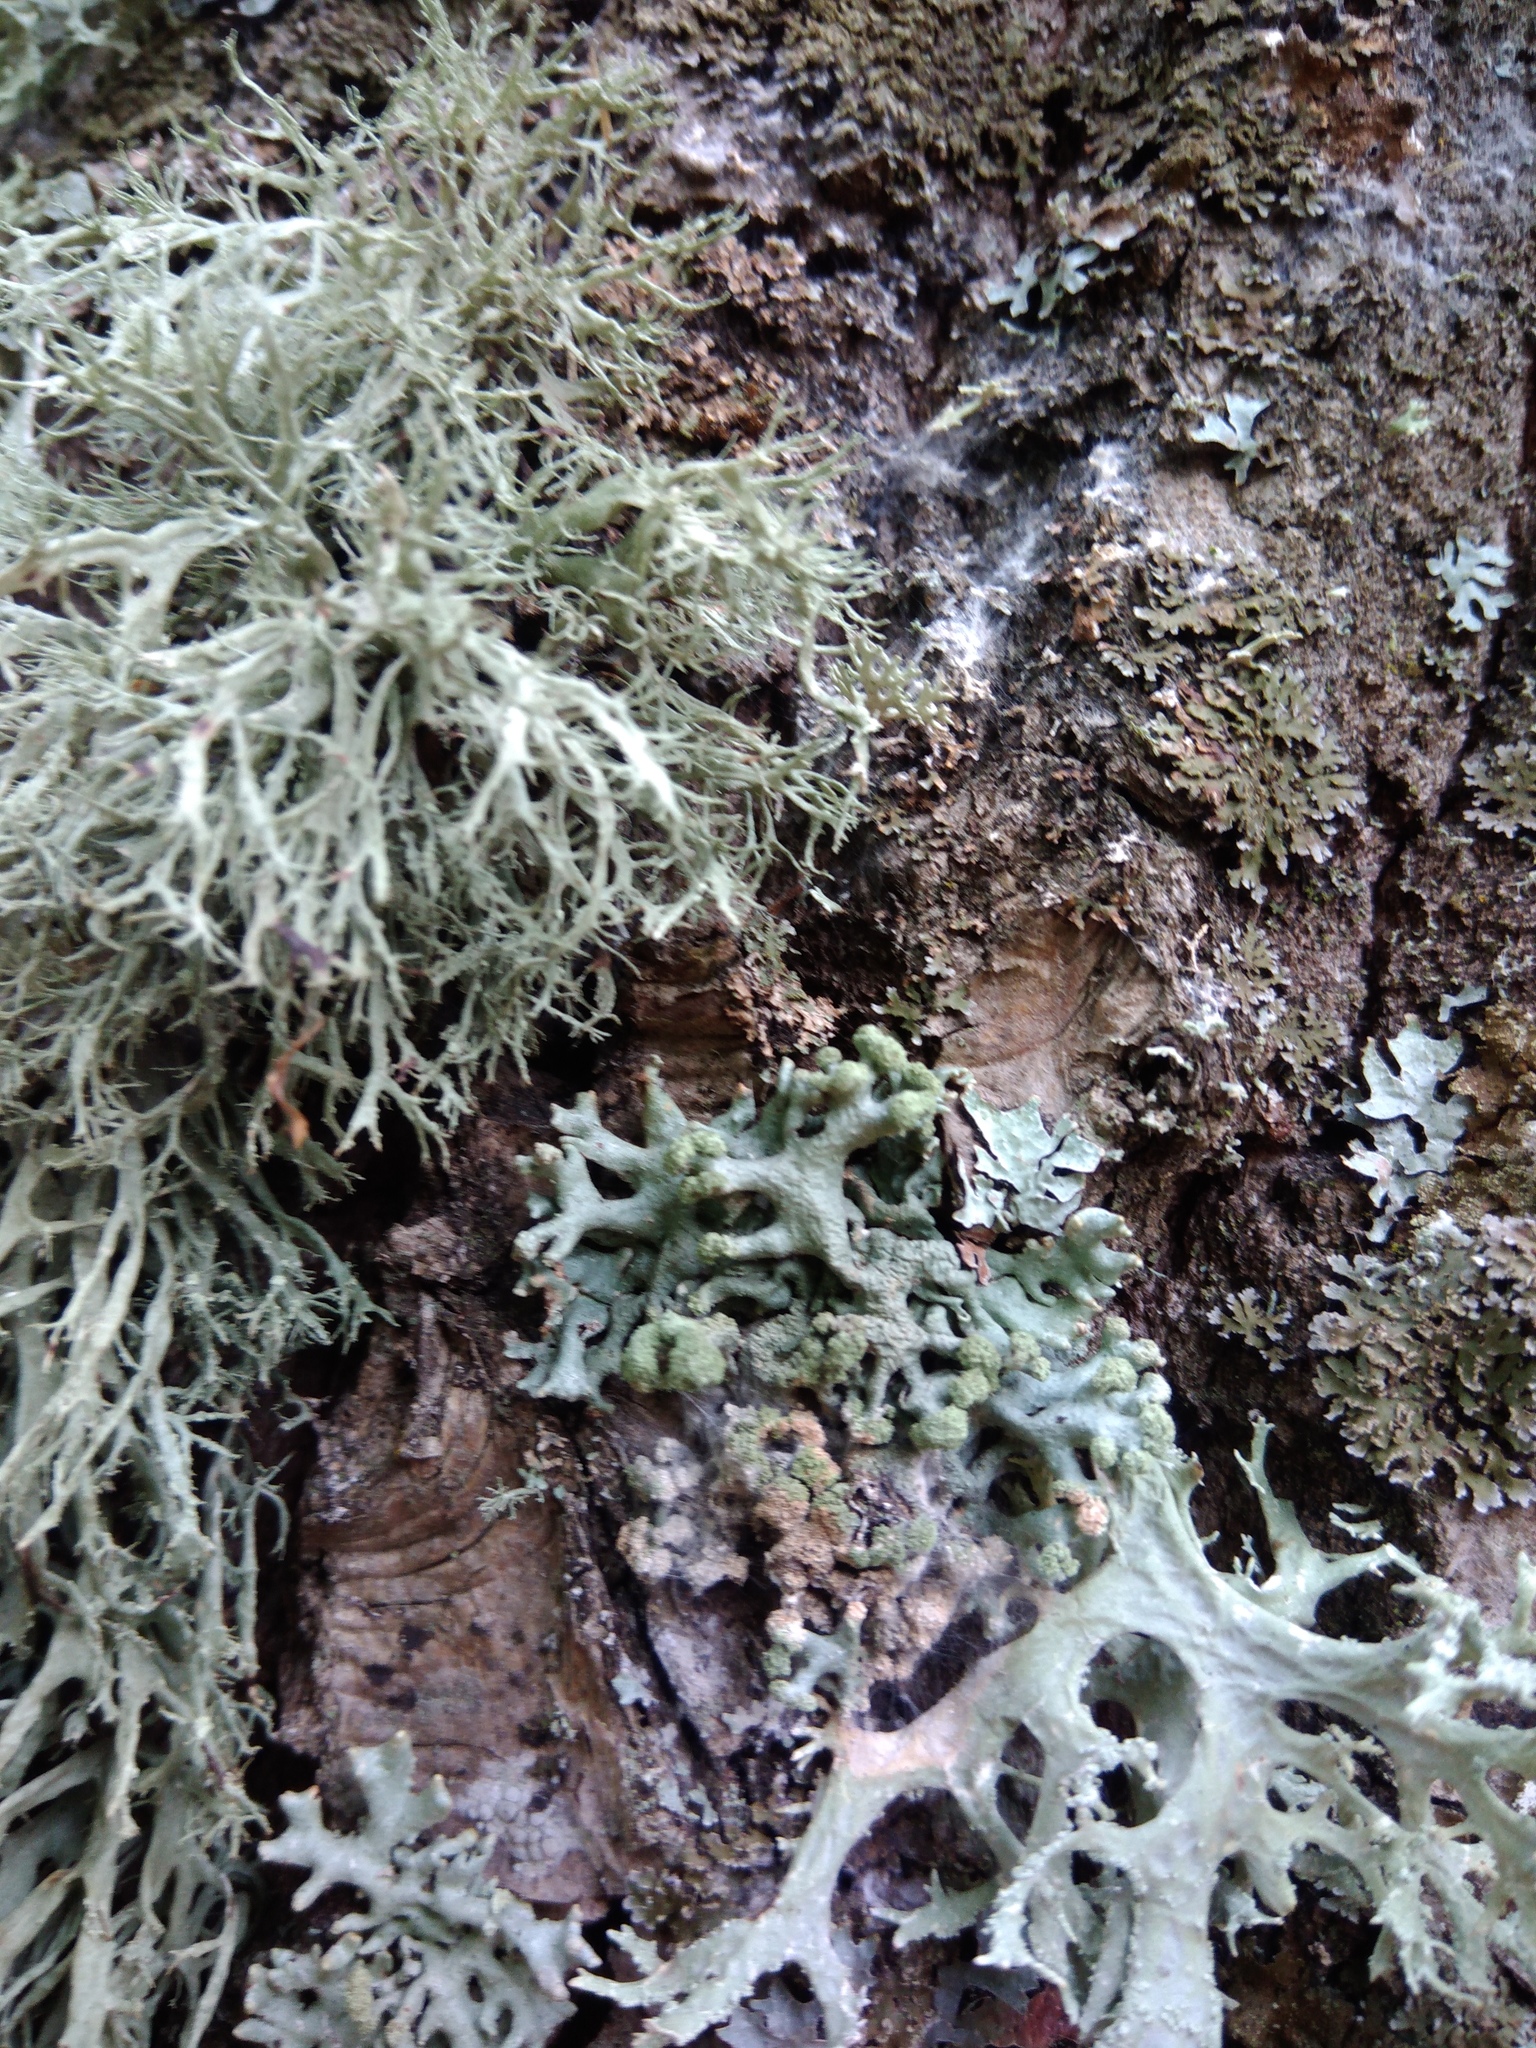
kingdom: Fungi
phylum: Ascomycota
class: Lecanoromycetes
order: Lecanorales
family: Parmeliaceae
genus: Hypogymnia
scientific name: Hypogymnia tubulosa
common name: Powder-headed tube lichen
